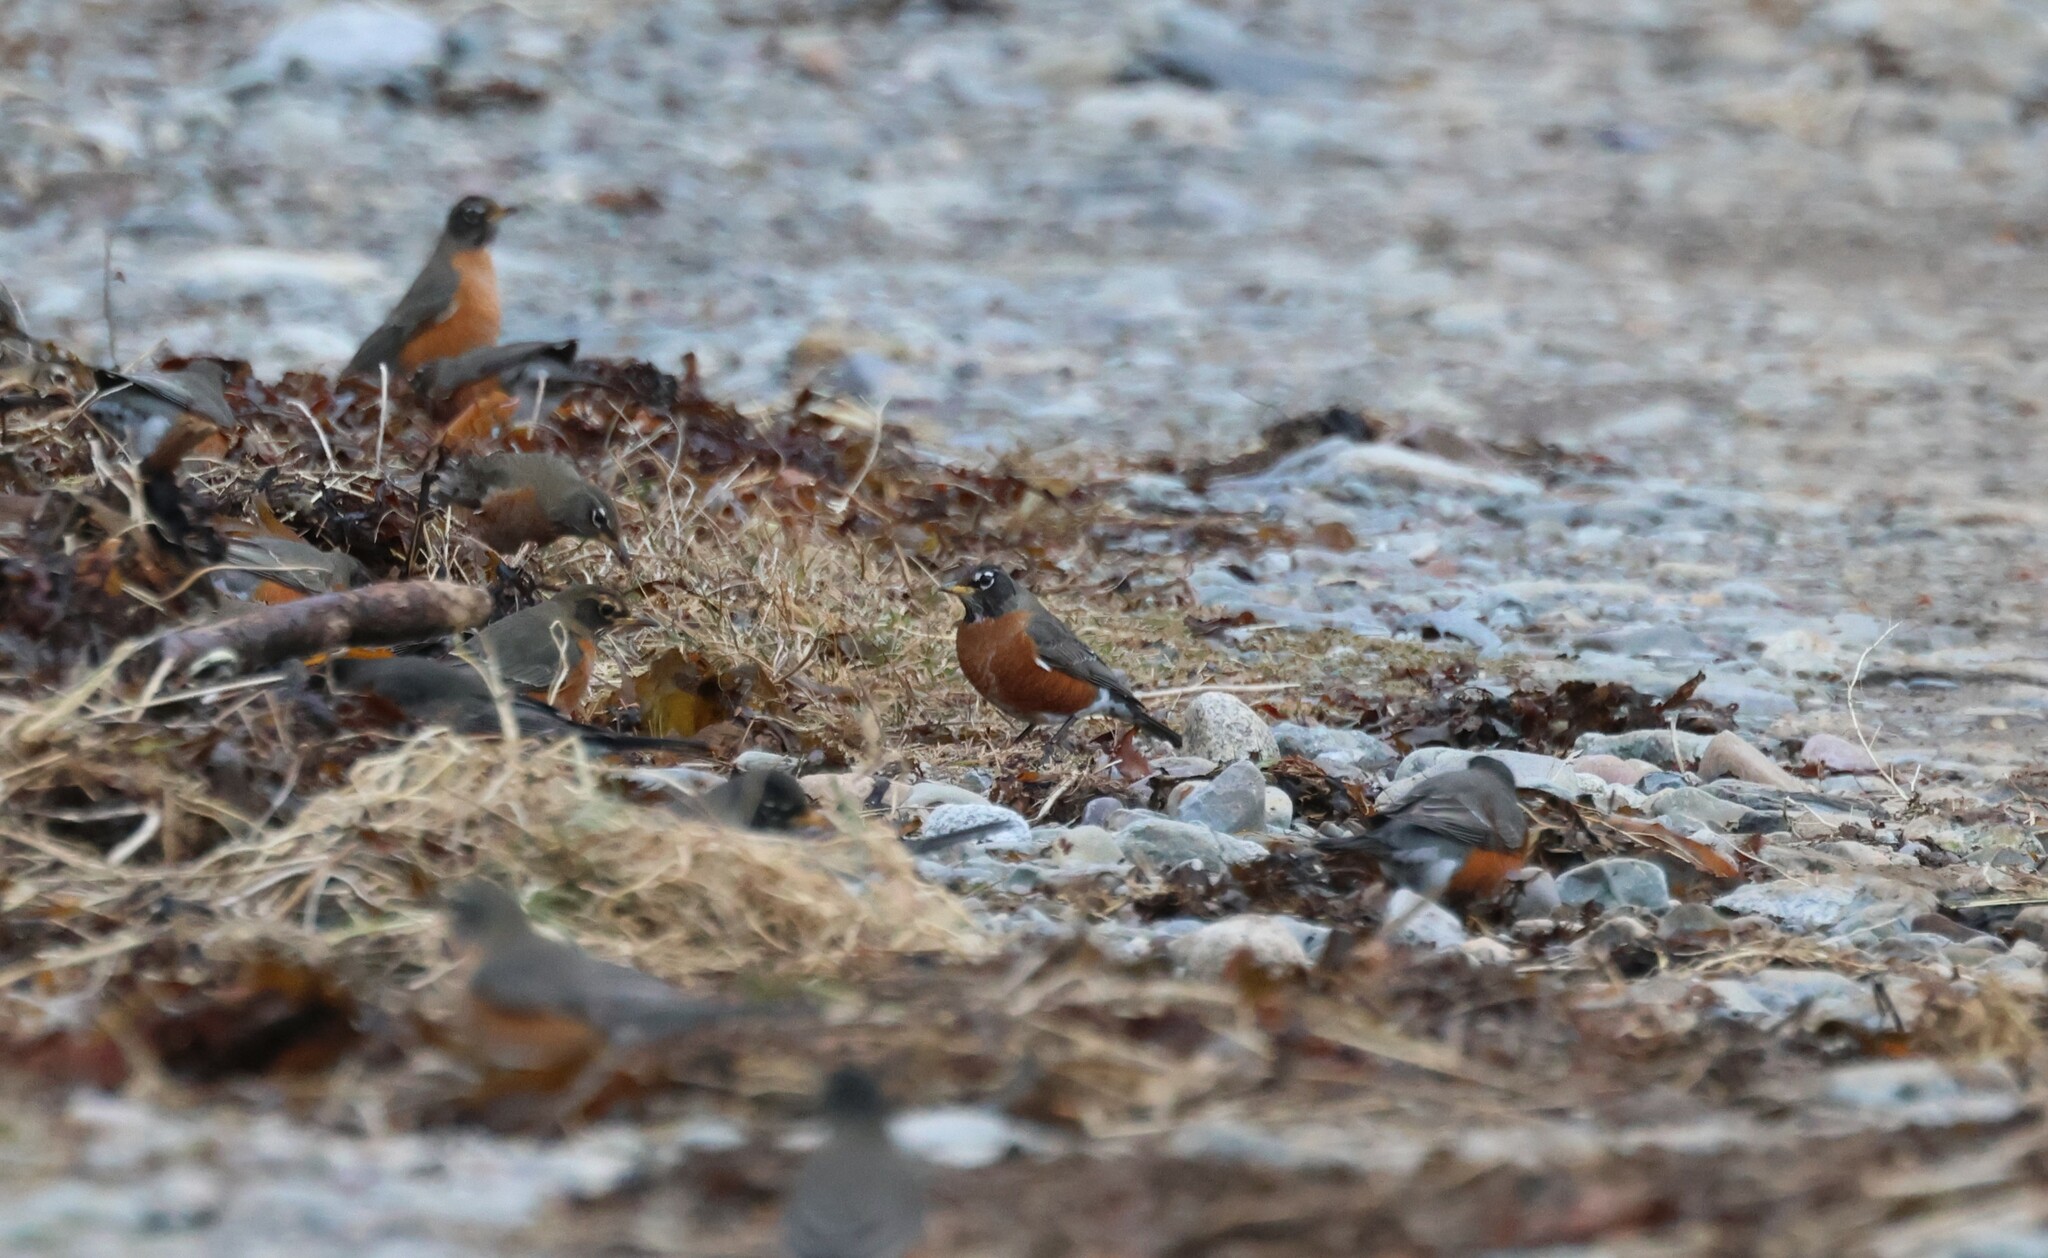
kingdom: Animalia
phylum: Chordata
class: Aves
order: Passeriformes
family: Turdidae
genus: Turdus
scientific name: Turdus migratorius
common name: American robin
